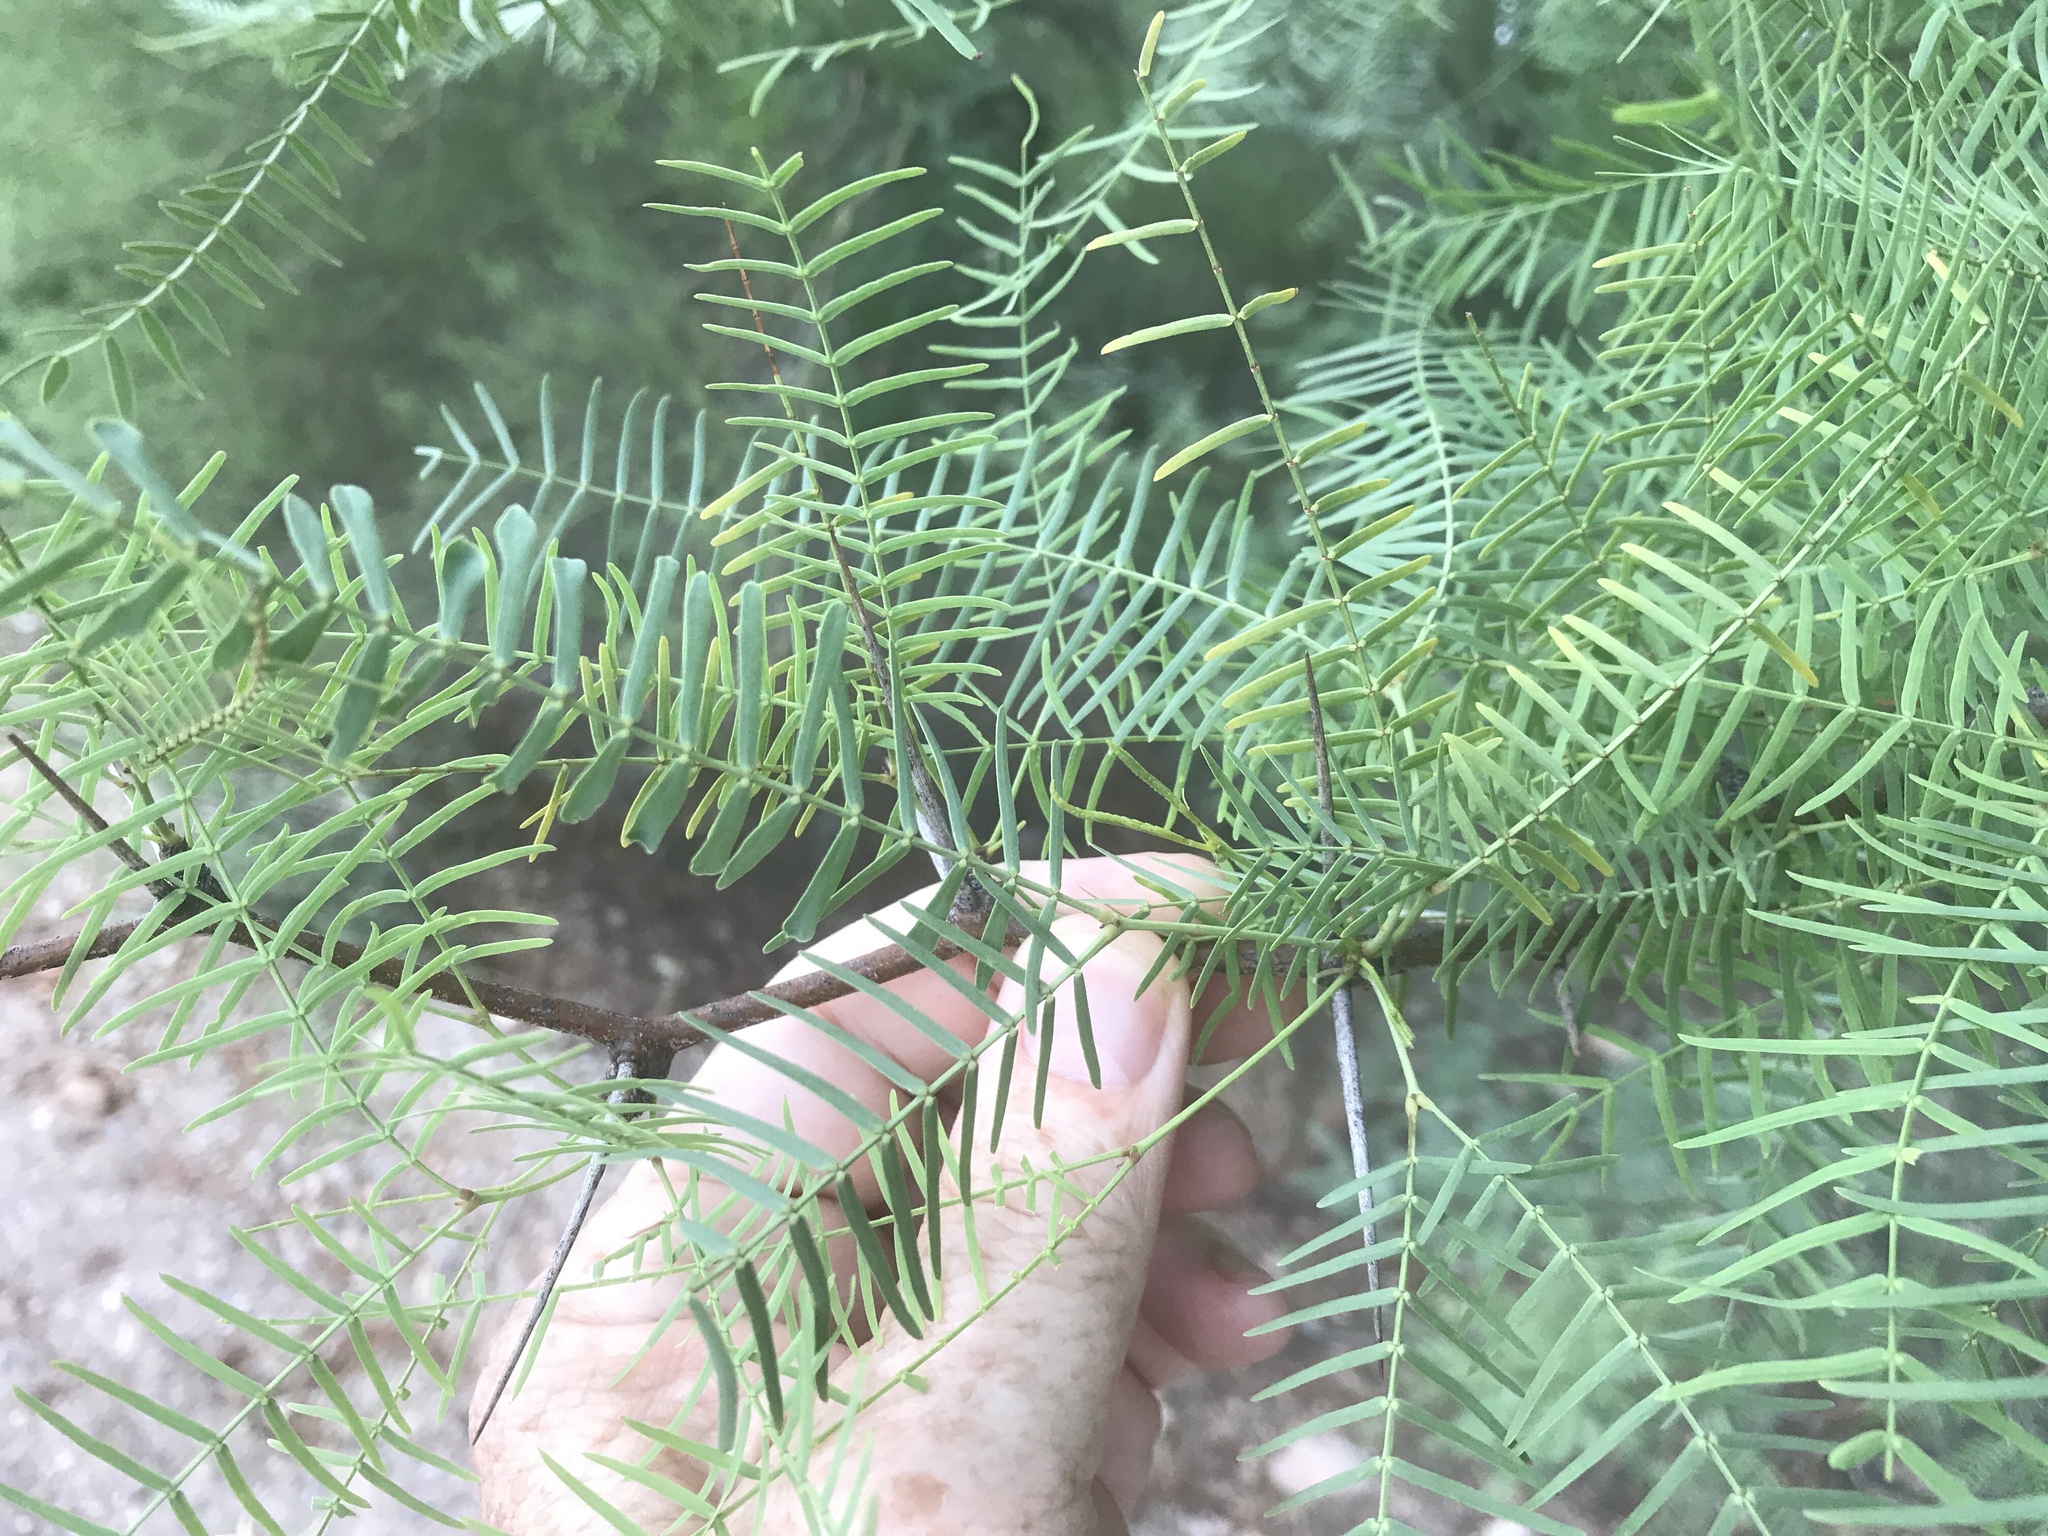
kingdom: Plantae
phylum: Tracheophyta
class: Magnoliopsida
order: Fabales
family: Fabaceae
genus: Prosopis
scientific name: Prosopis glandulosa
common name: Honey mesquite
